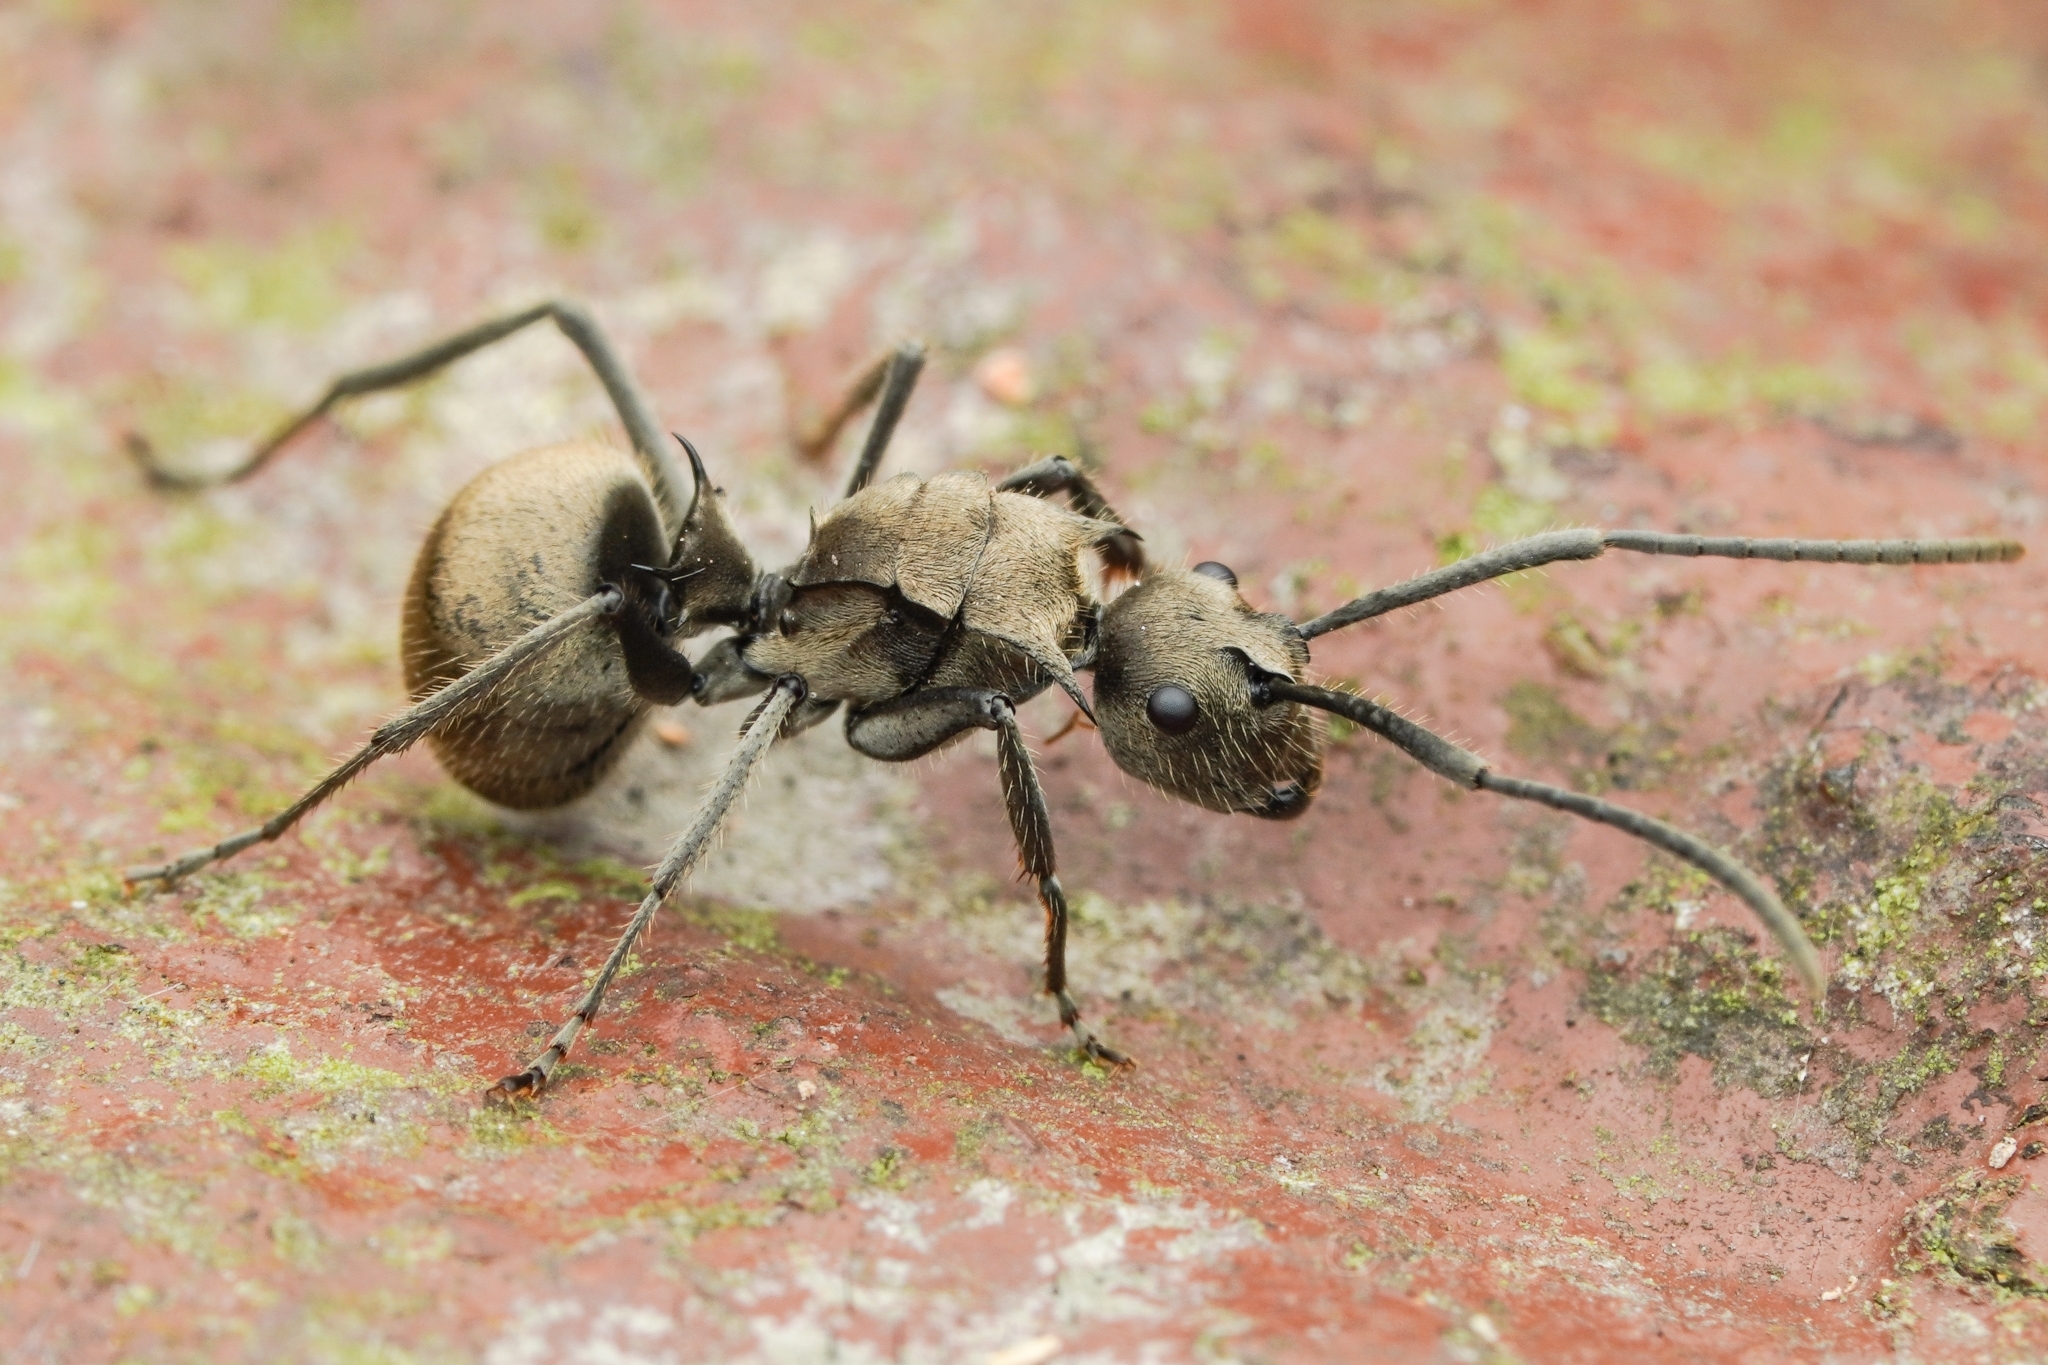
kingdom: Animalia
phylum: Arthropoda
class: Insecta
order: Hymenoptera
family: Formicidae
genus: Polyrhachis
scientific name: Polyrhachis illaudata
